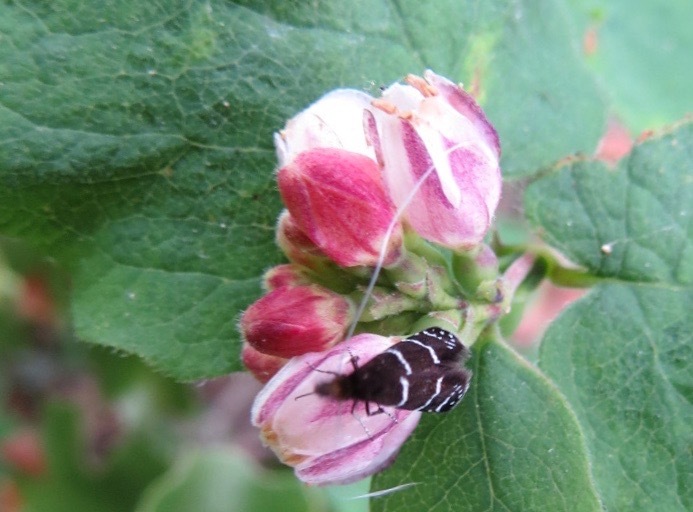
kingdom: Animalia
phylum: Arthropoda
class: Insecta
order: Lepidoptera
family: Adelidae
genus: Adela
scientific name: Adela septentrionella
